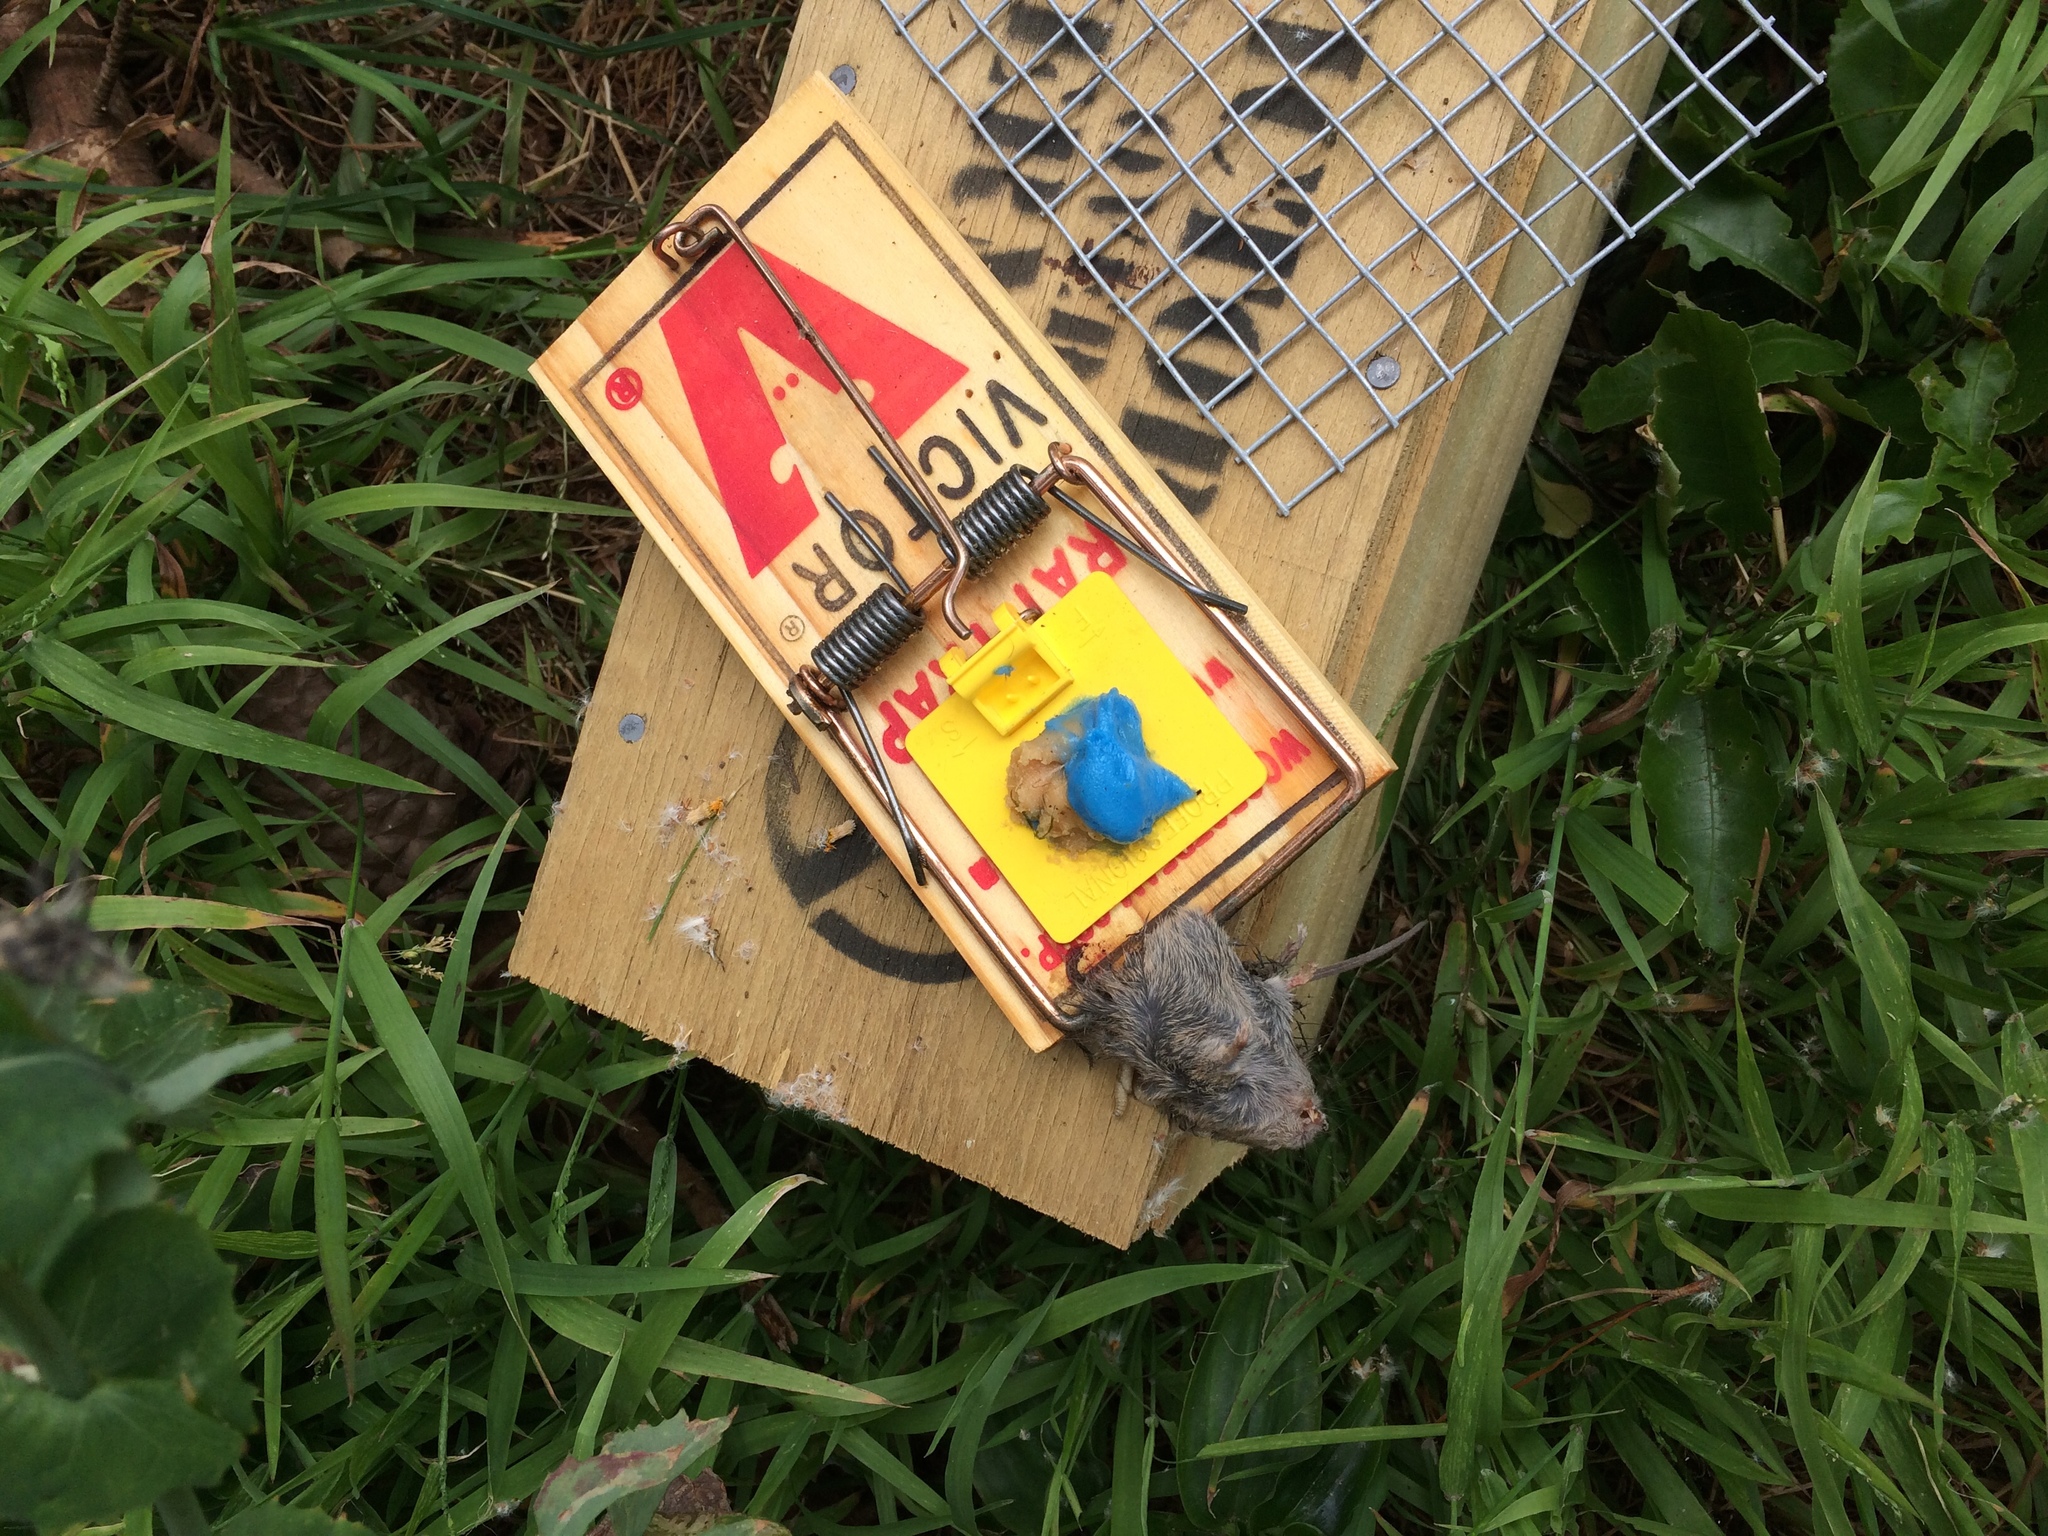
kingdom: Animalia
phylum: Chordata
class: Mammalia
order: Rodentia
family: Muridae
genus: Mus
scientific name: Mus musculus
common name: House mouse
